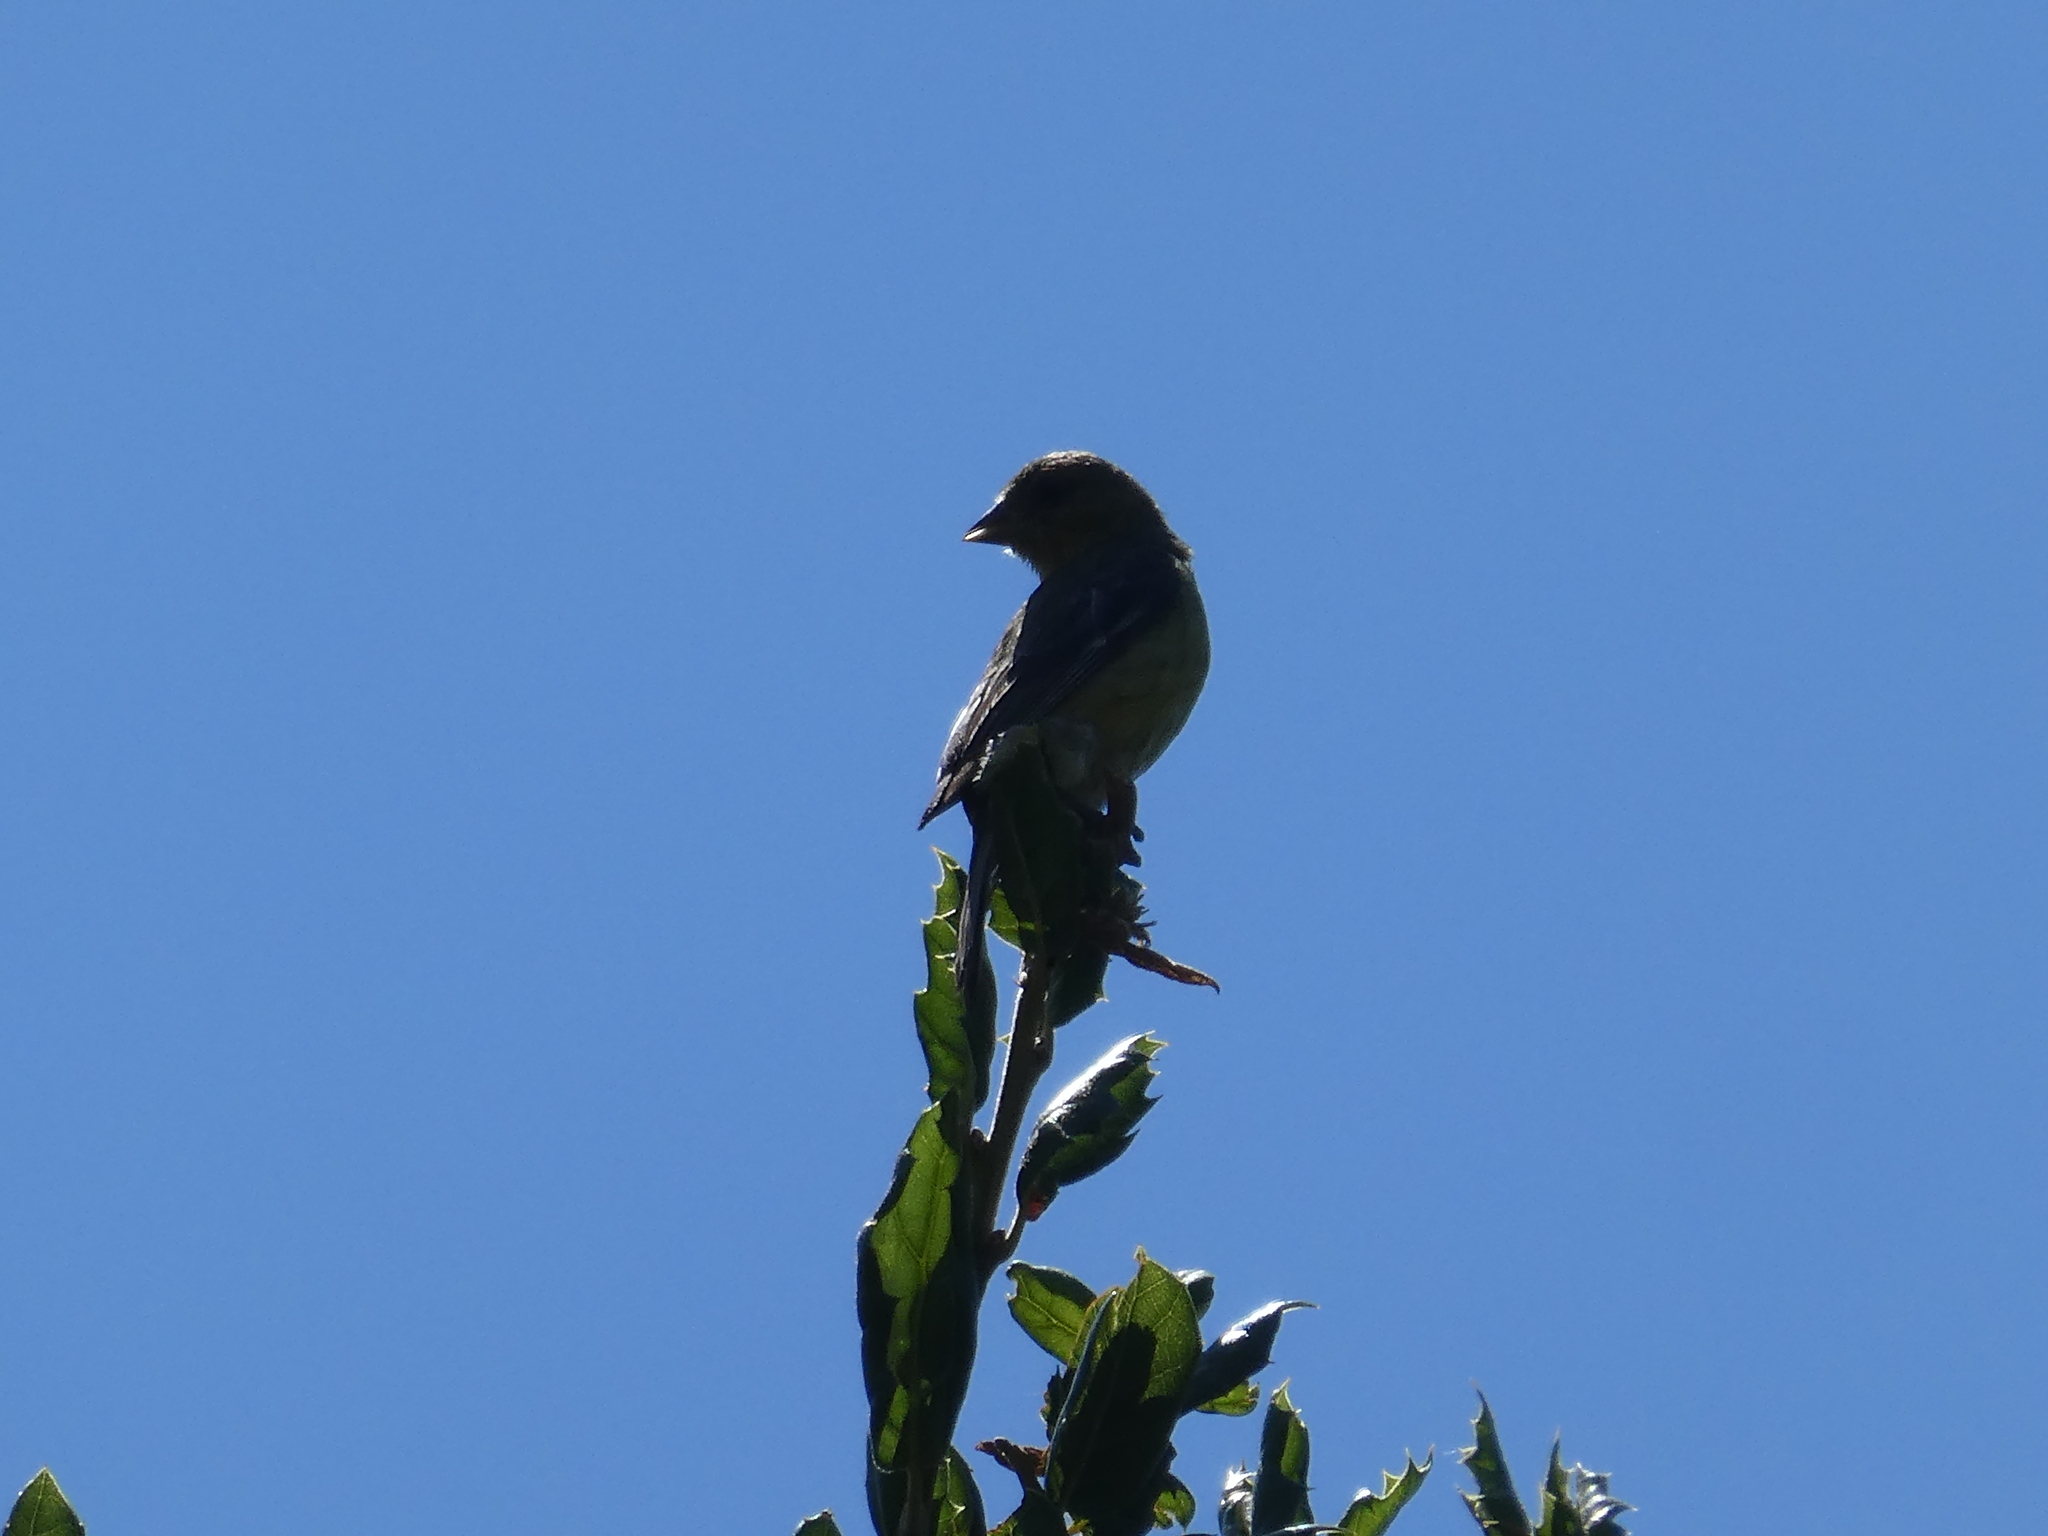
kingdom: Animalia
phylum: Chordata
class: Aves
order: Passeriformes
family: Fringillidae
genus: Spinus
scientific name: Spinus psaltria
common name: Lesser goldfinch
